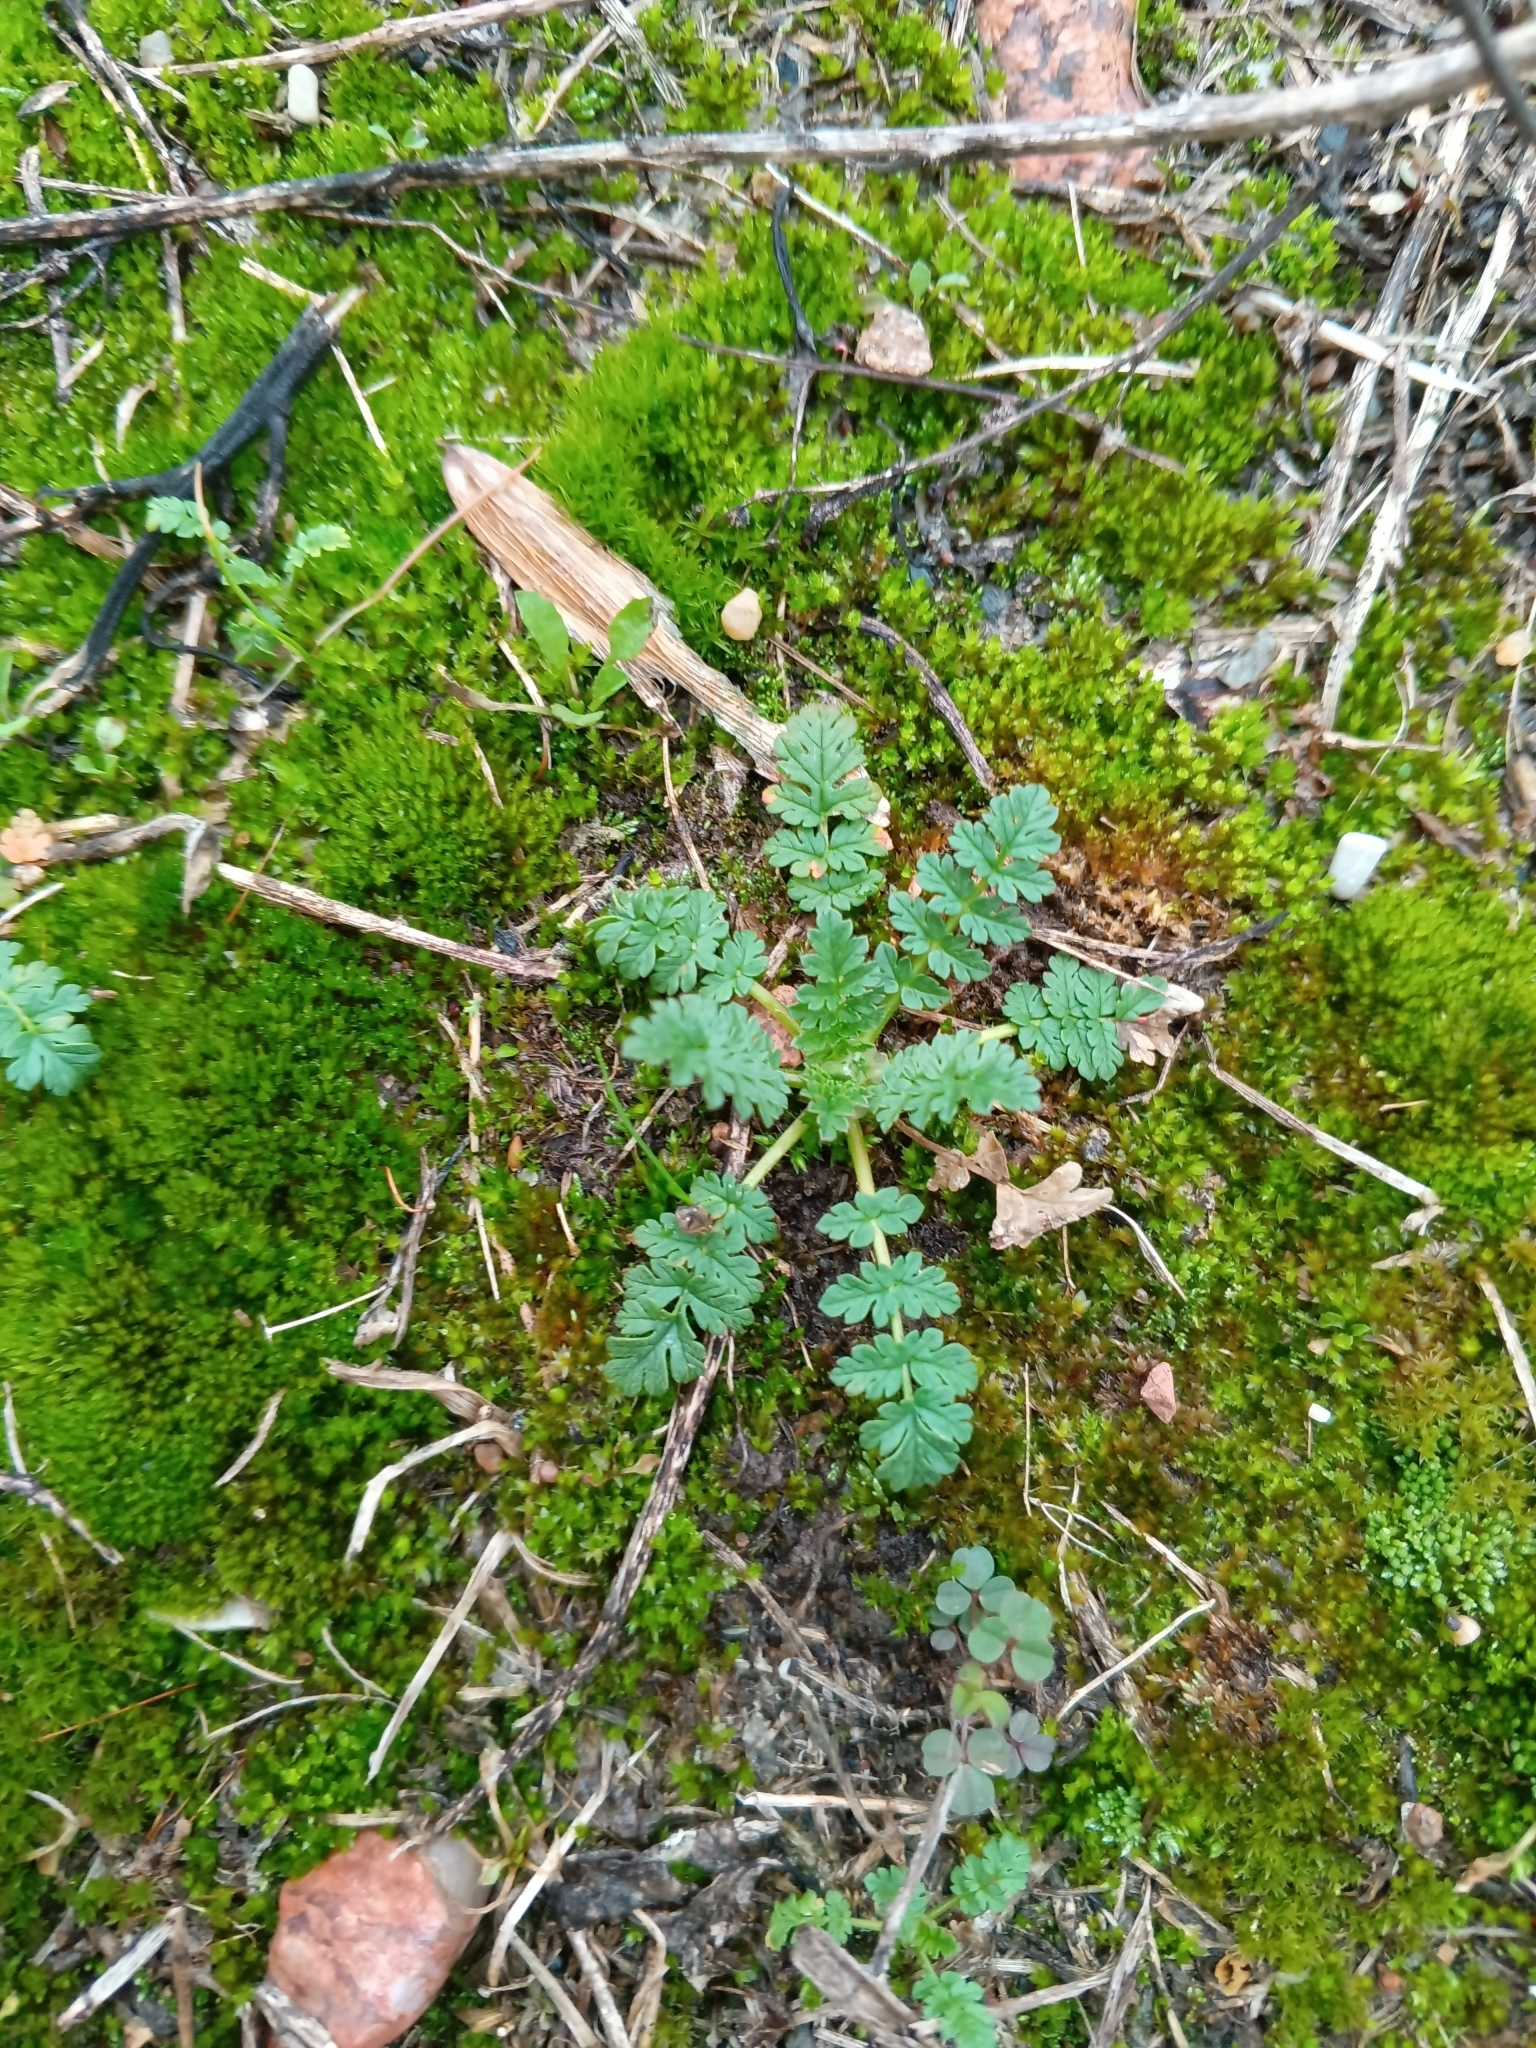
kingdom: Plantae
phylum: Tracheophyta
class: Magnoliopsida
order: Geraniales
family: Geraniaceae
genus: Erodium
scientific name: Erodium cicutarium
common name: Common stork's-bill
